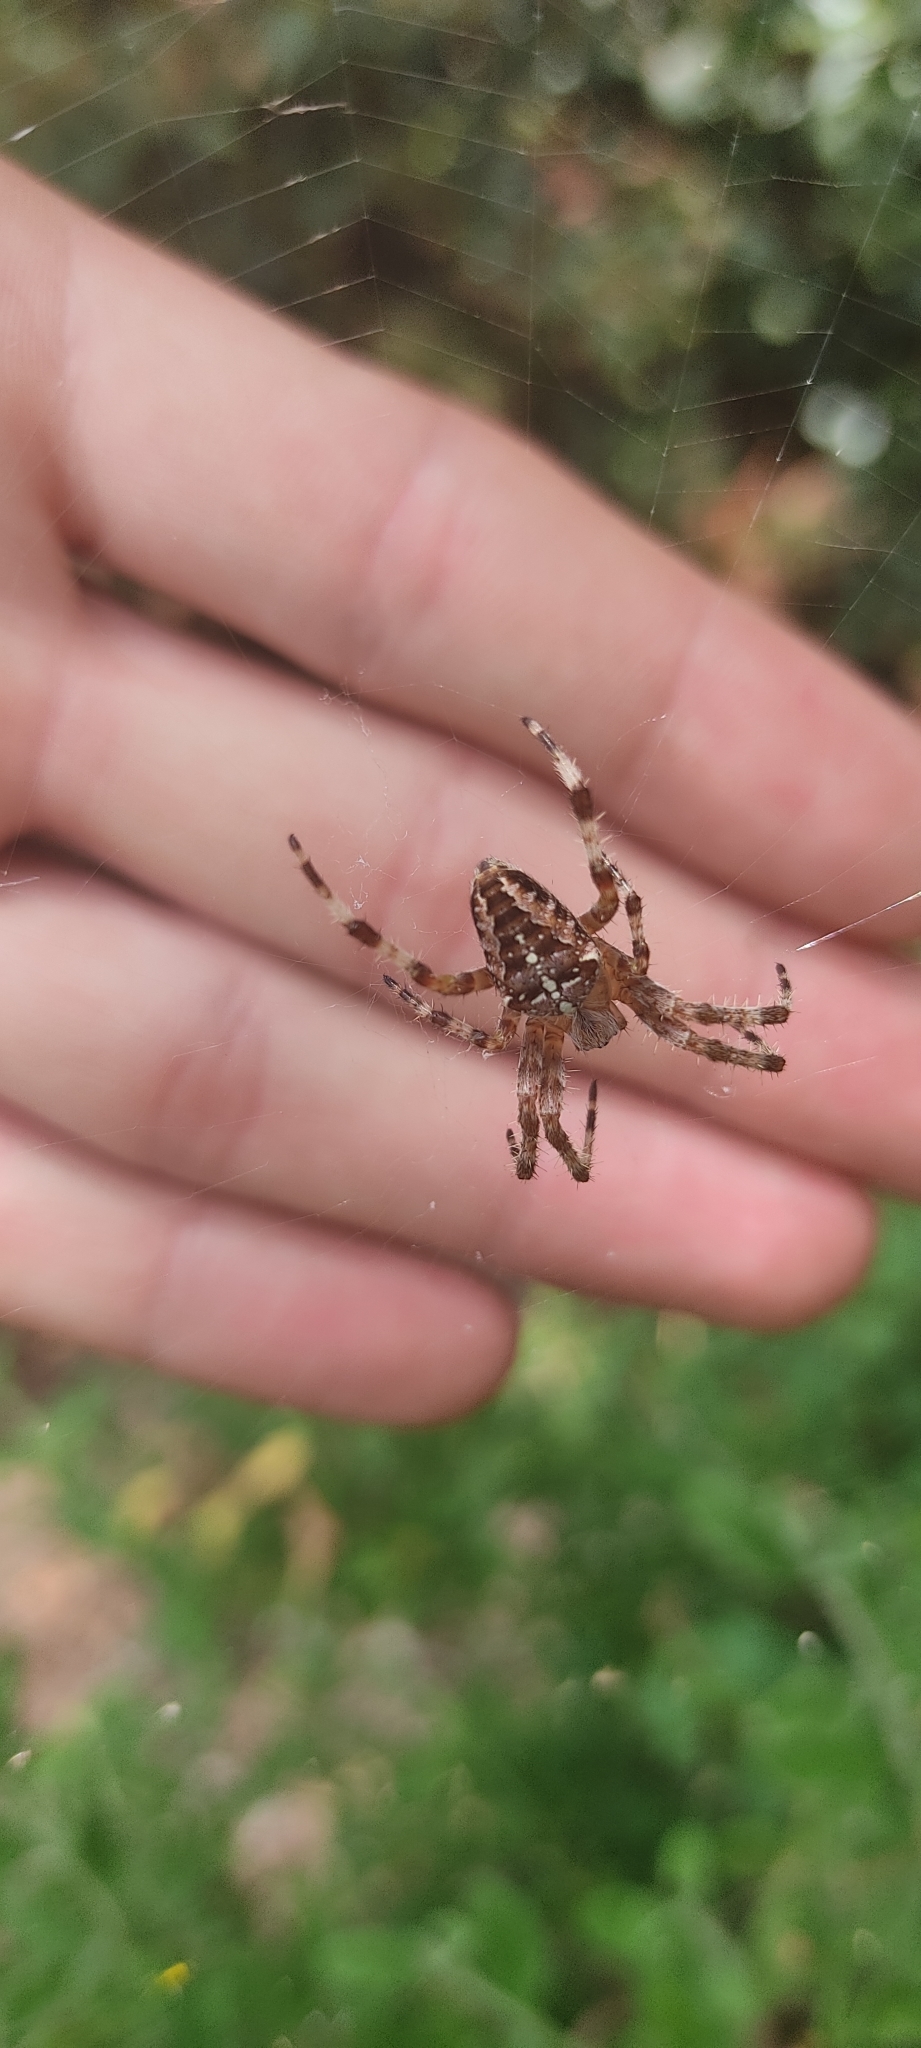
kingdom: Animalia
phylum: Arthropoda
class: Arachnida
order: Araneae
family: Araneidae
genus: Araneus
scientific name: Araneus diadematus
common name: Cross orbweaver
